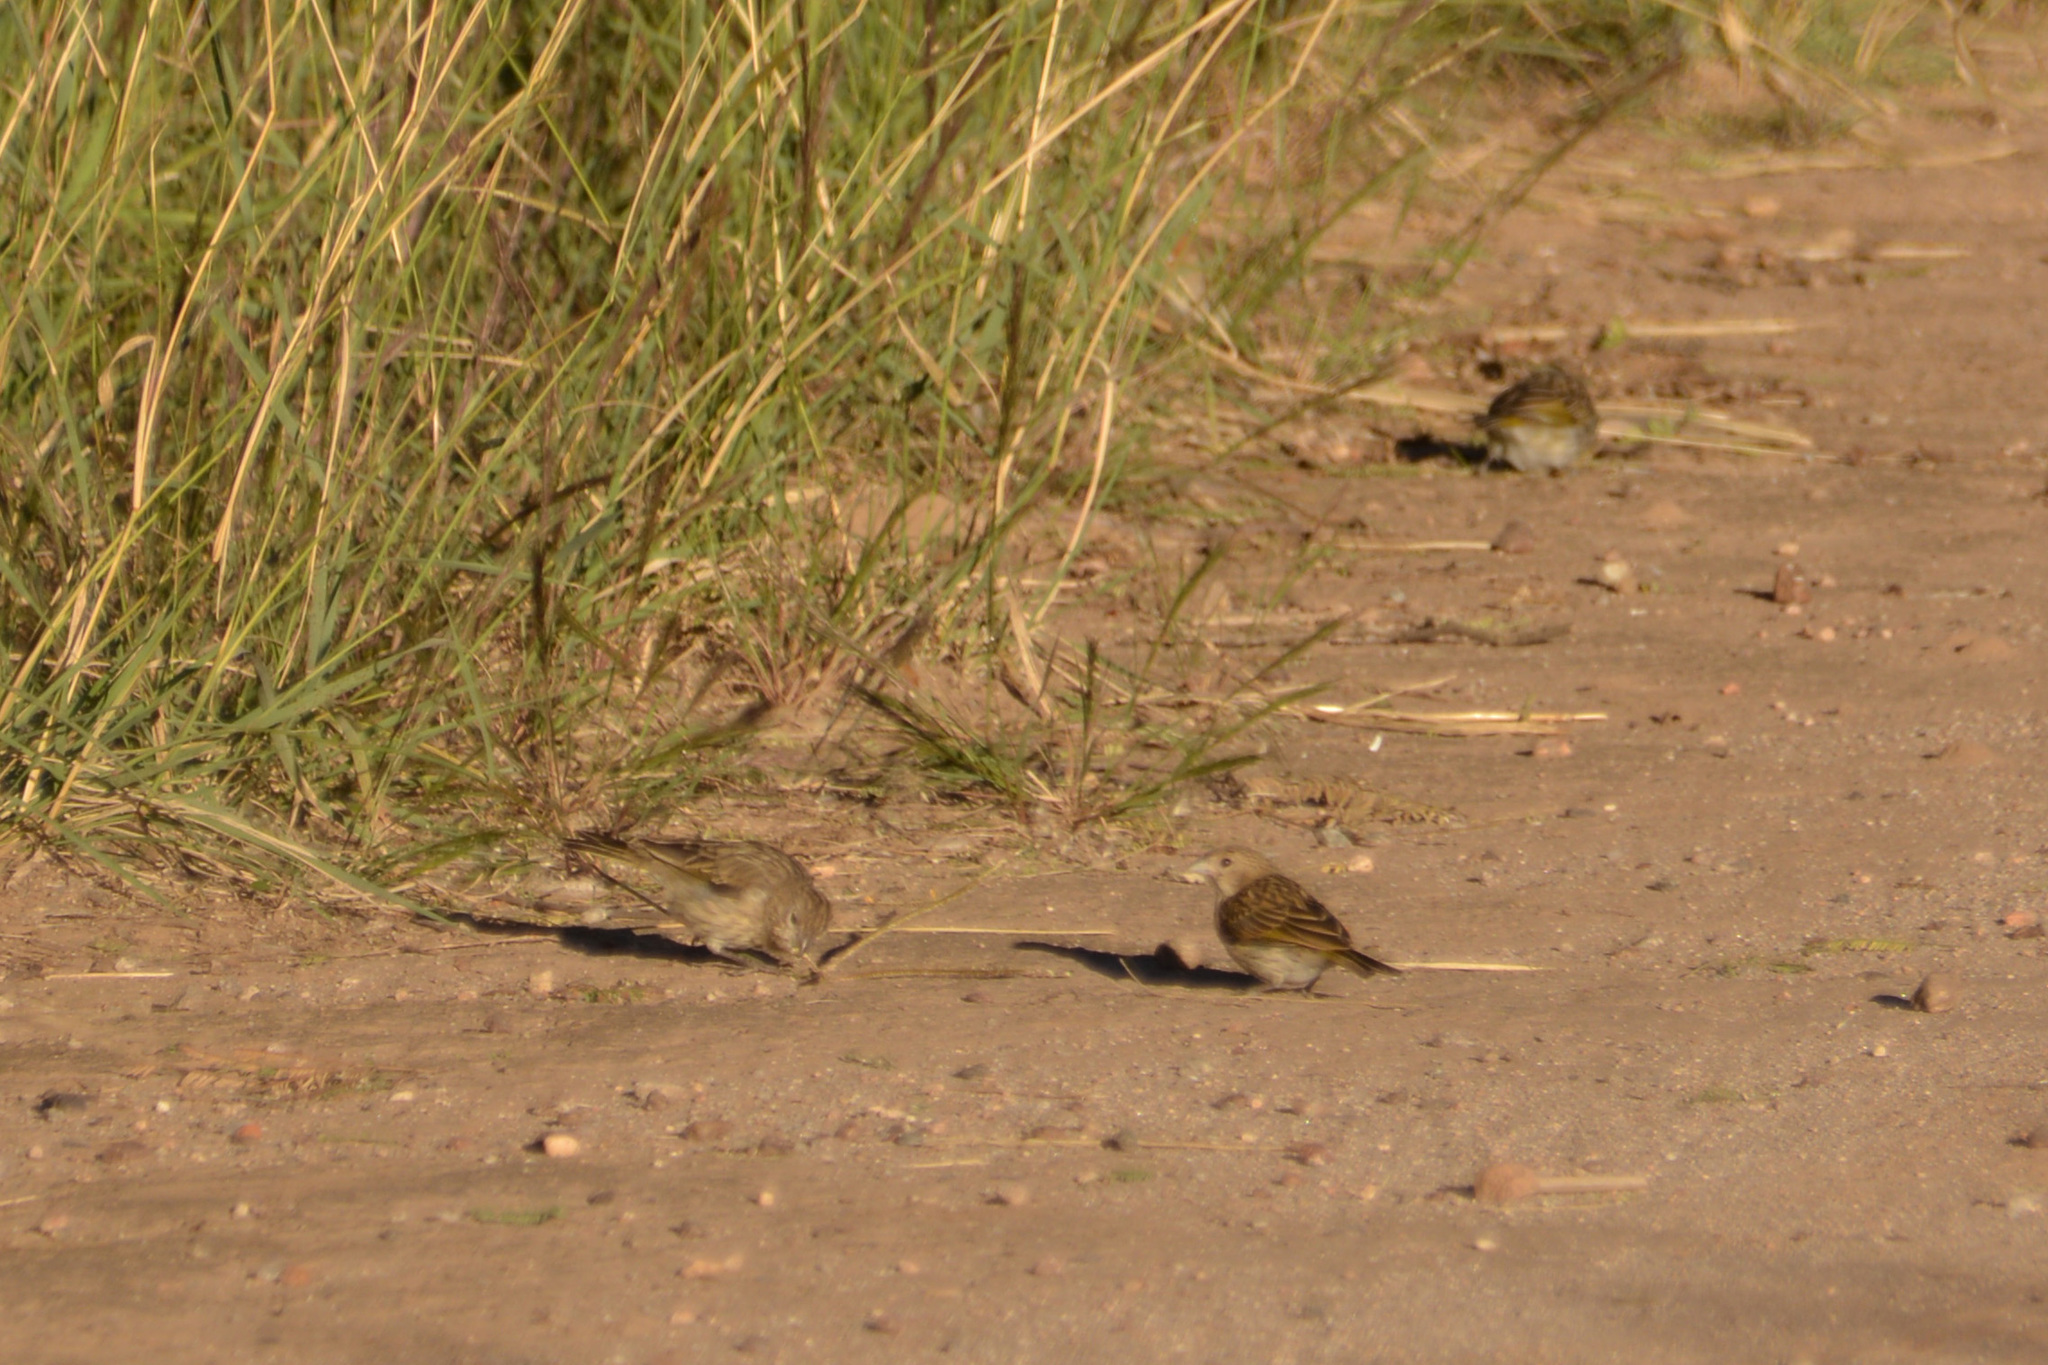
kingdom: Animalia
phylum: Chordata
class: Aves
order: Passeriformes
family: Thraupidae
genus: Sicalis
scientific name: Sicalis flaveola
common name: Saffron finch
